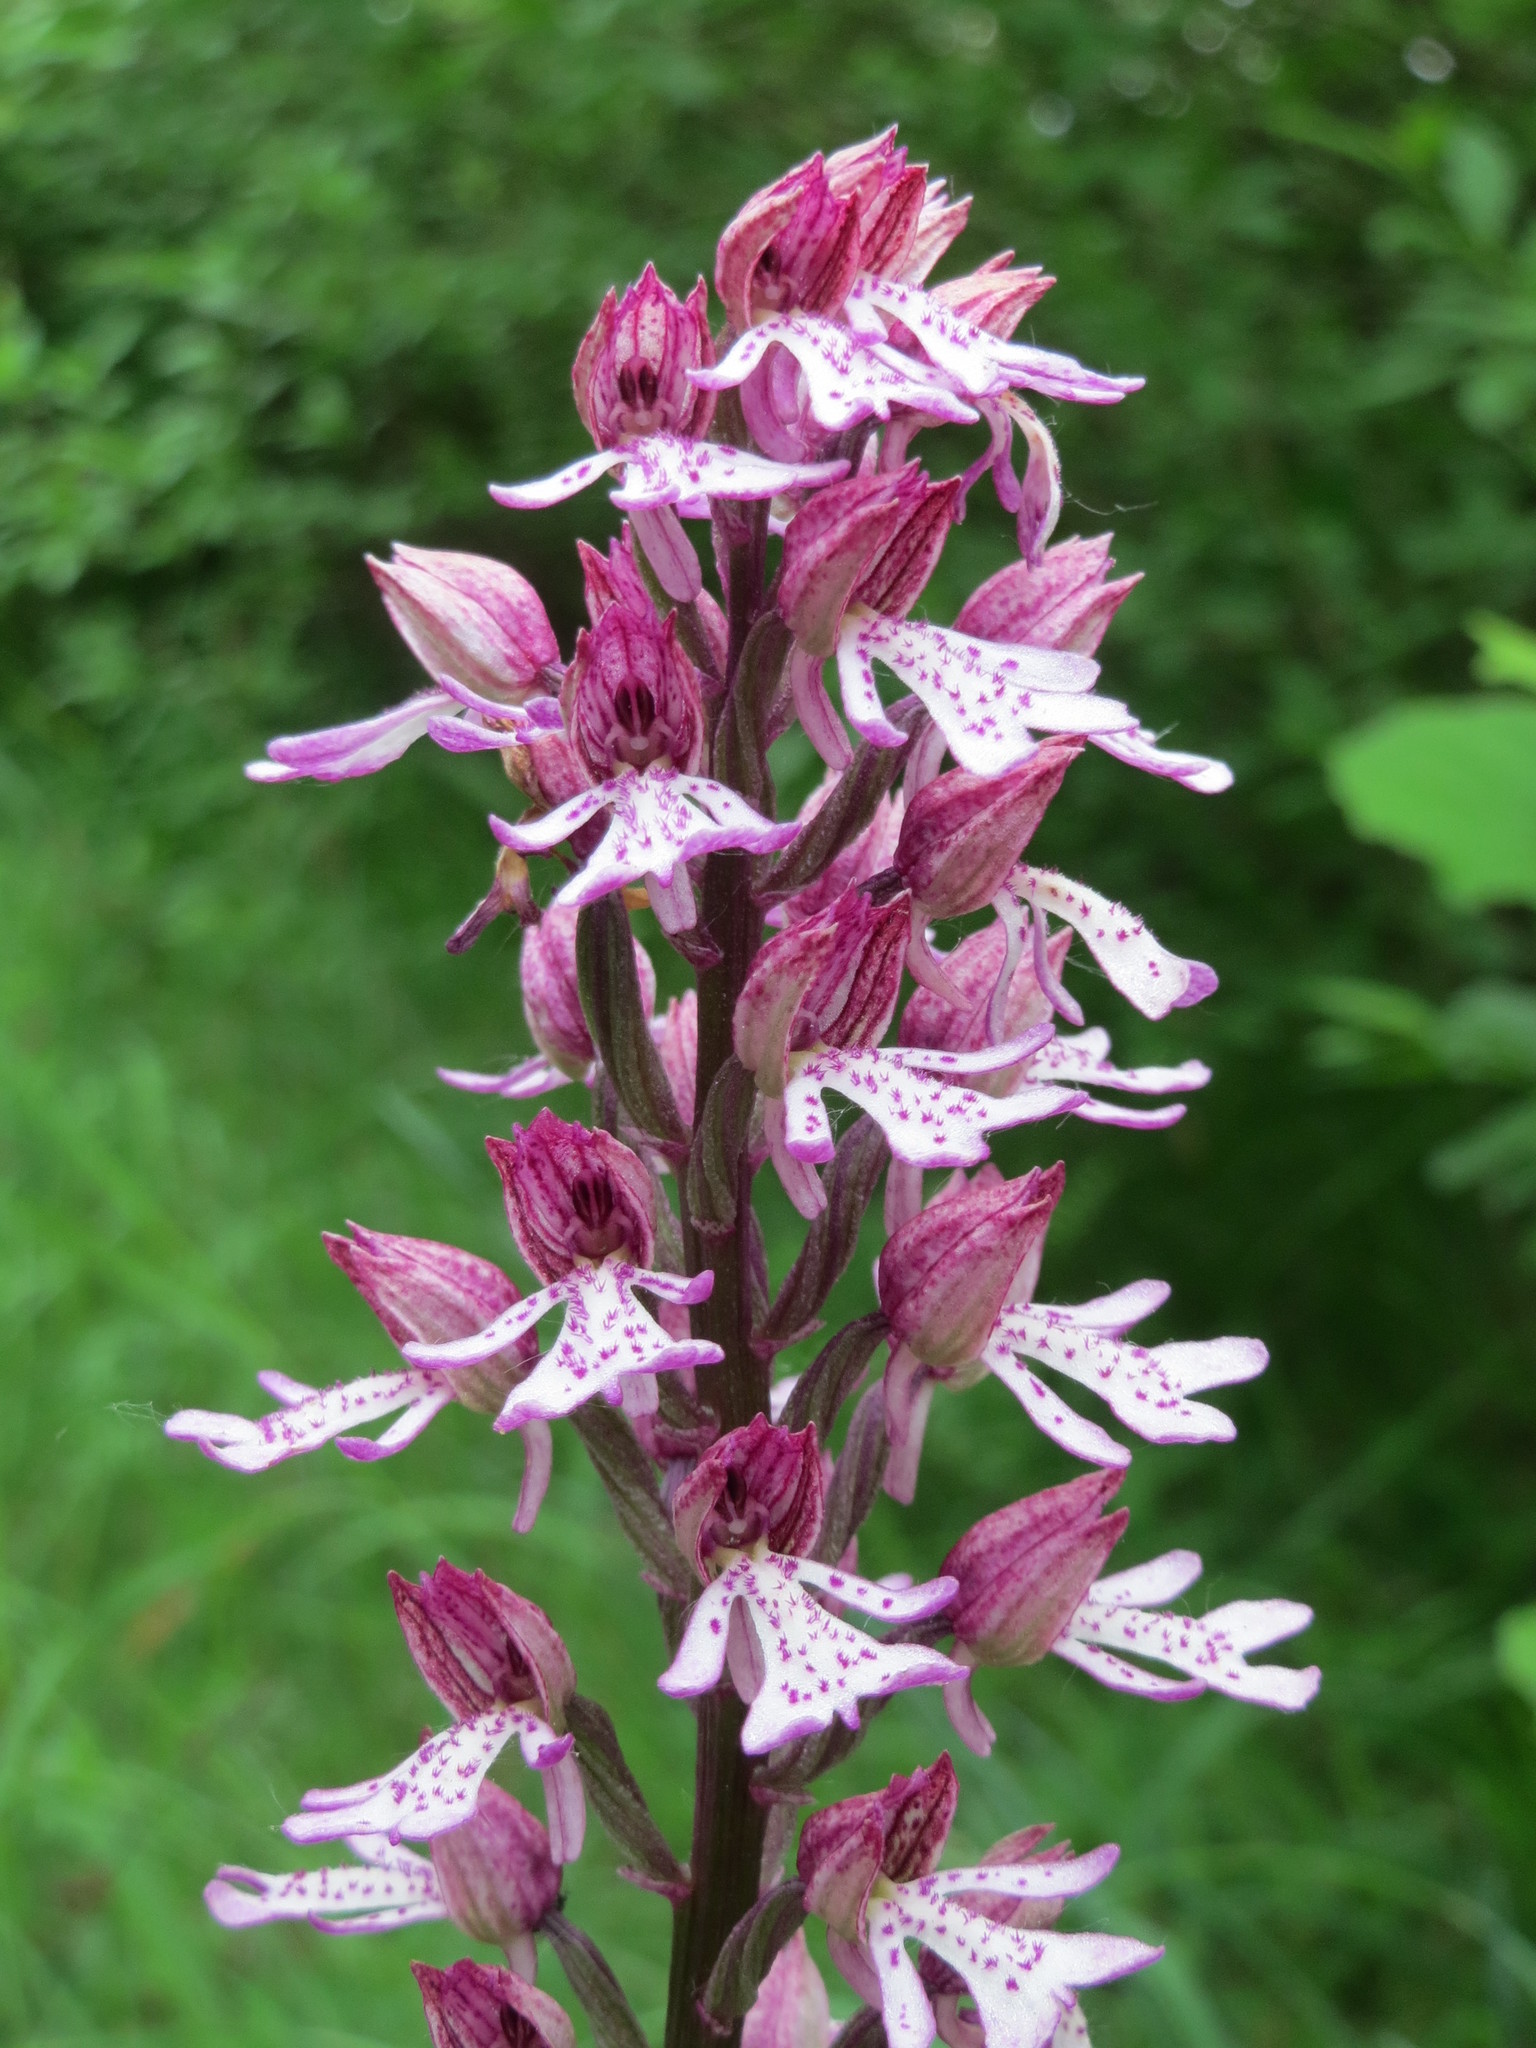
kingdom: Plantae
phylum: Tracheophyta
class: Liliopsida
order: Asparagales
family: Orchidaceae
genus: Orchis
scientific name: Orchis hybrida
